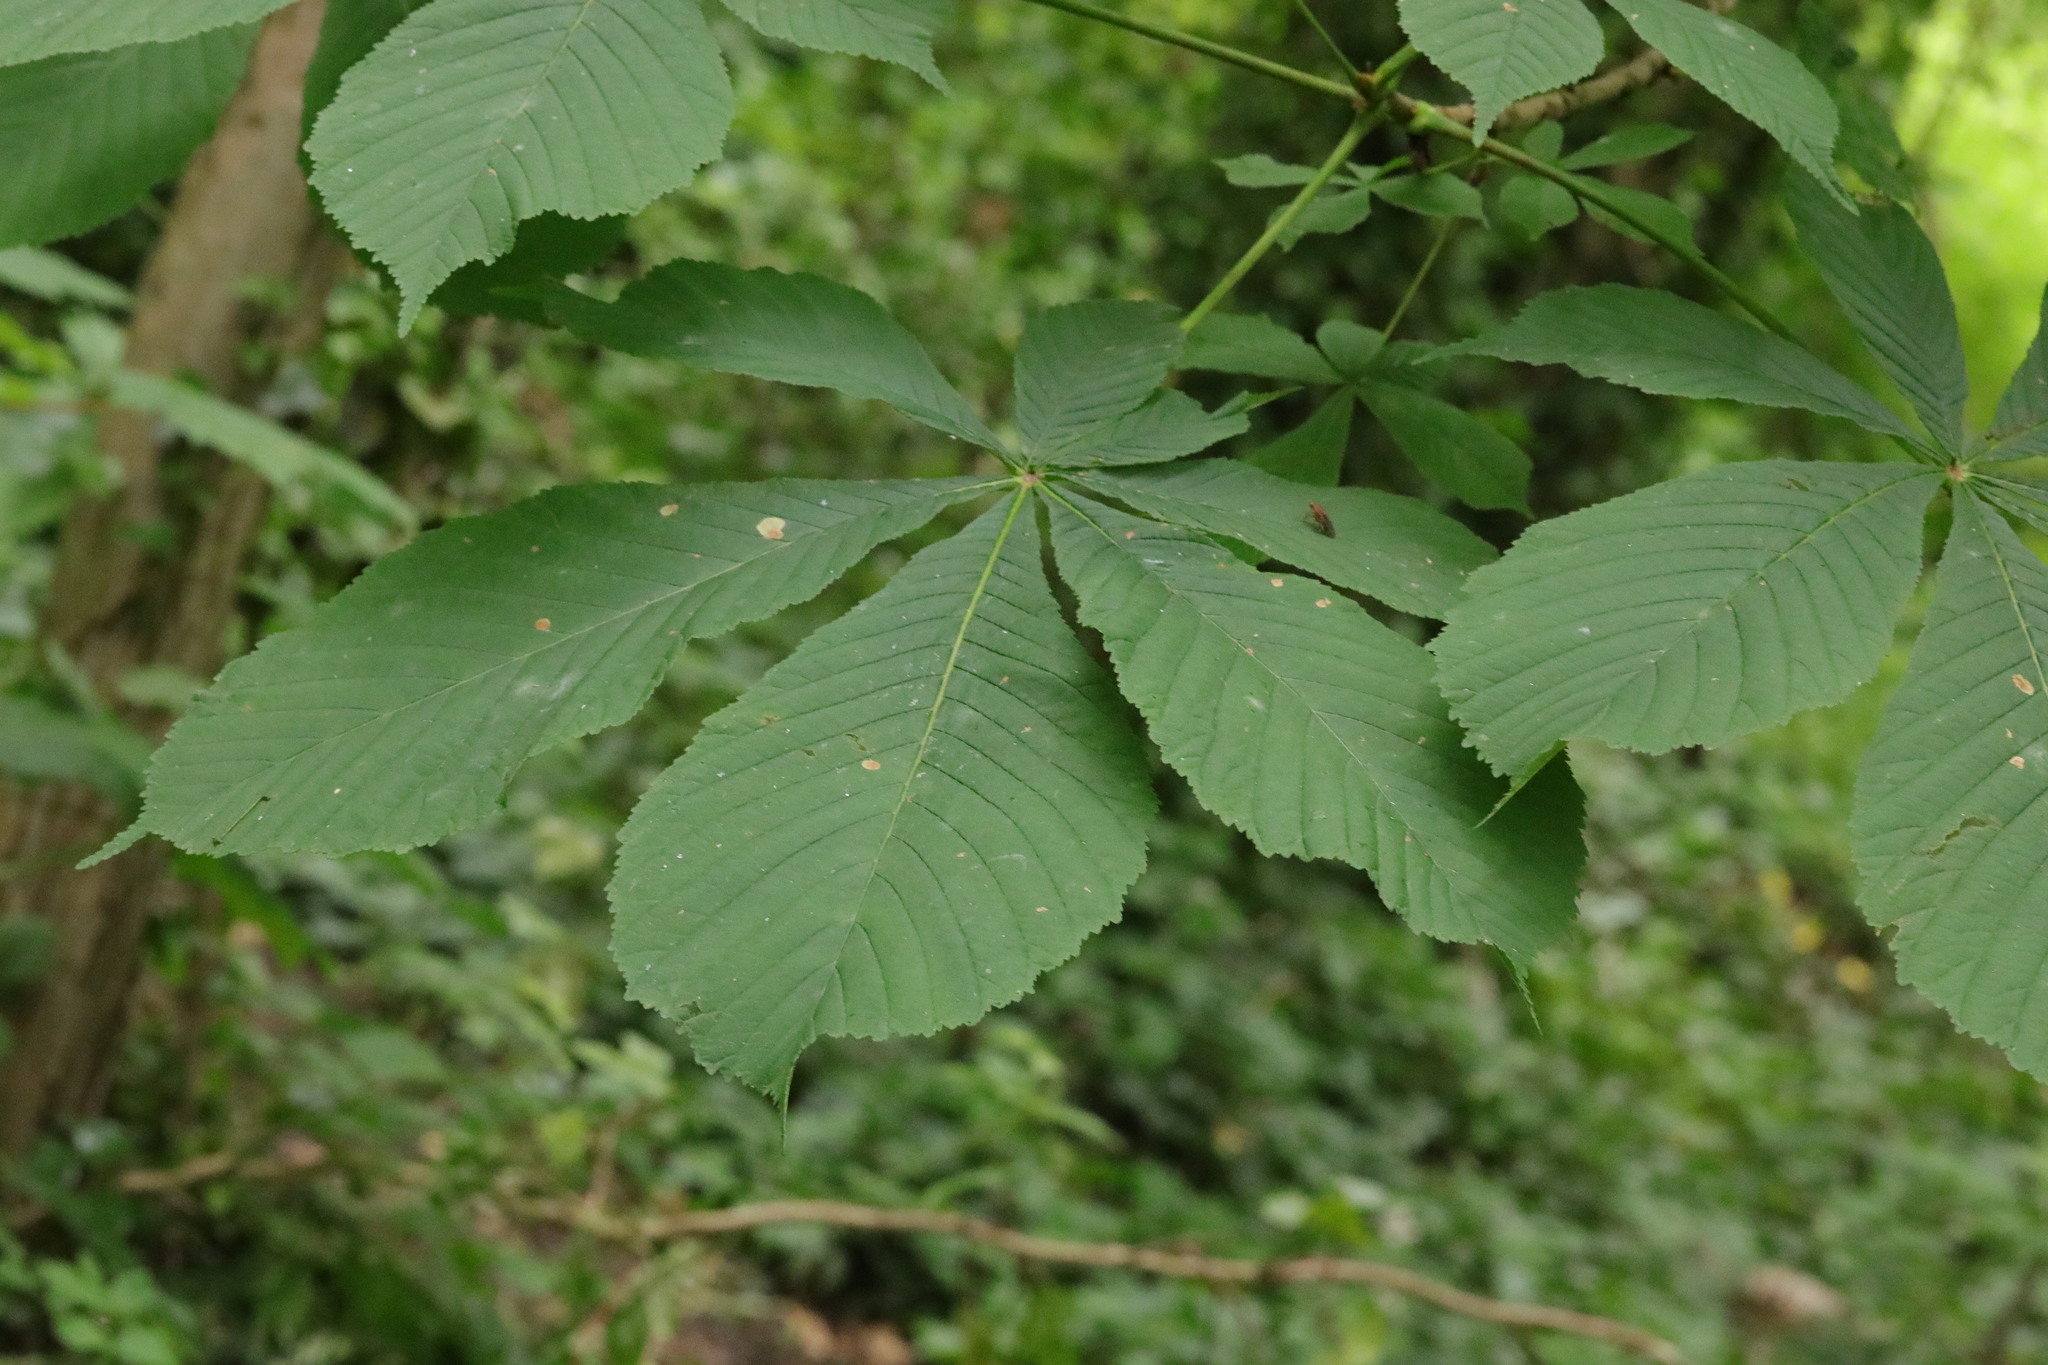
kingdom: Plantae
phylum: Tracheophyta
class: Magnoliopsida
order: Sapindales
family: Sapindaceae
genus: Aesculus
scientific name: Aesculus hippocastanum
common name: Horse-chestnut
